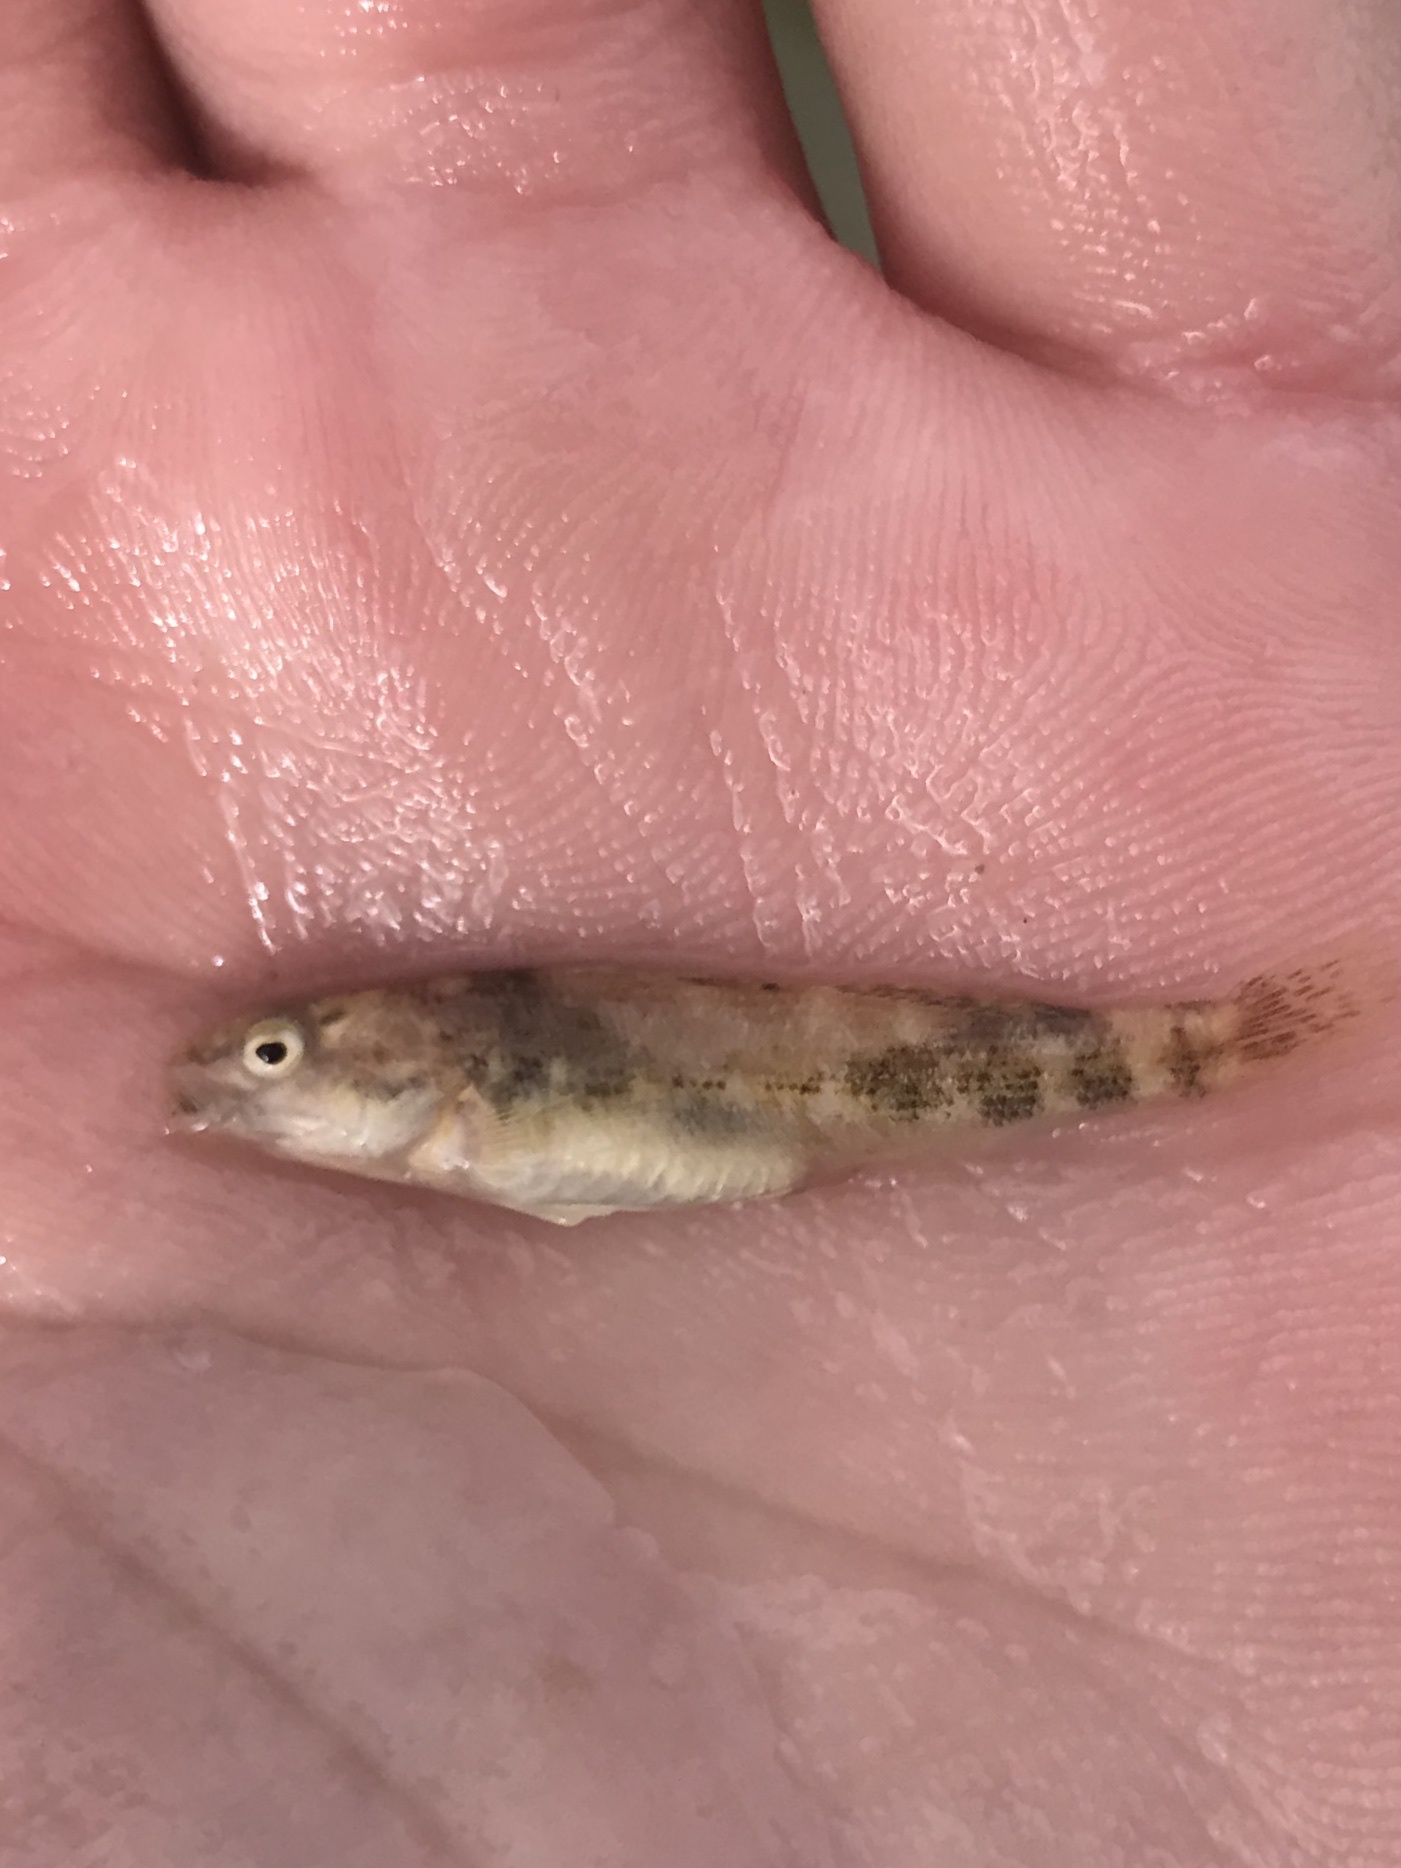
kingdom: Animalia
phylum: Chordata
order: Perciformes
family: Percidae
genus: Etheostoma
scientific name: Etheostoma spectabile
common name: Orangethroat darter
